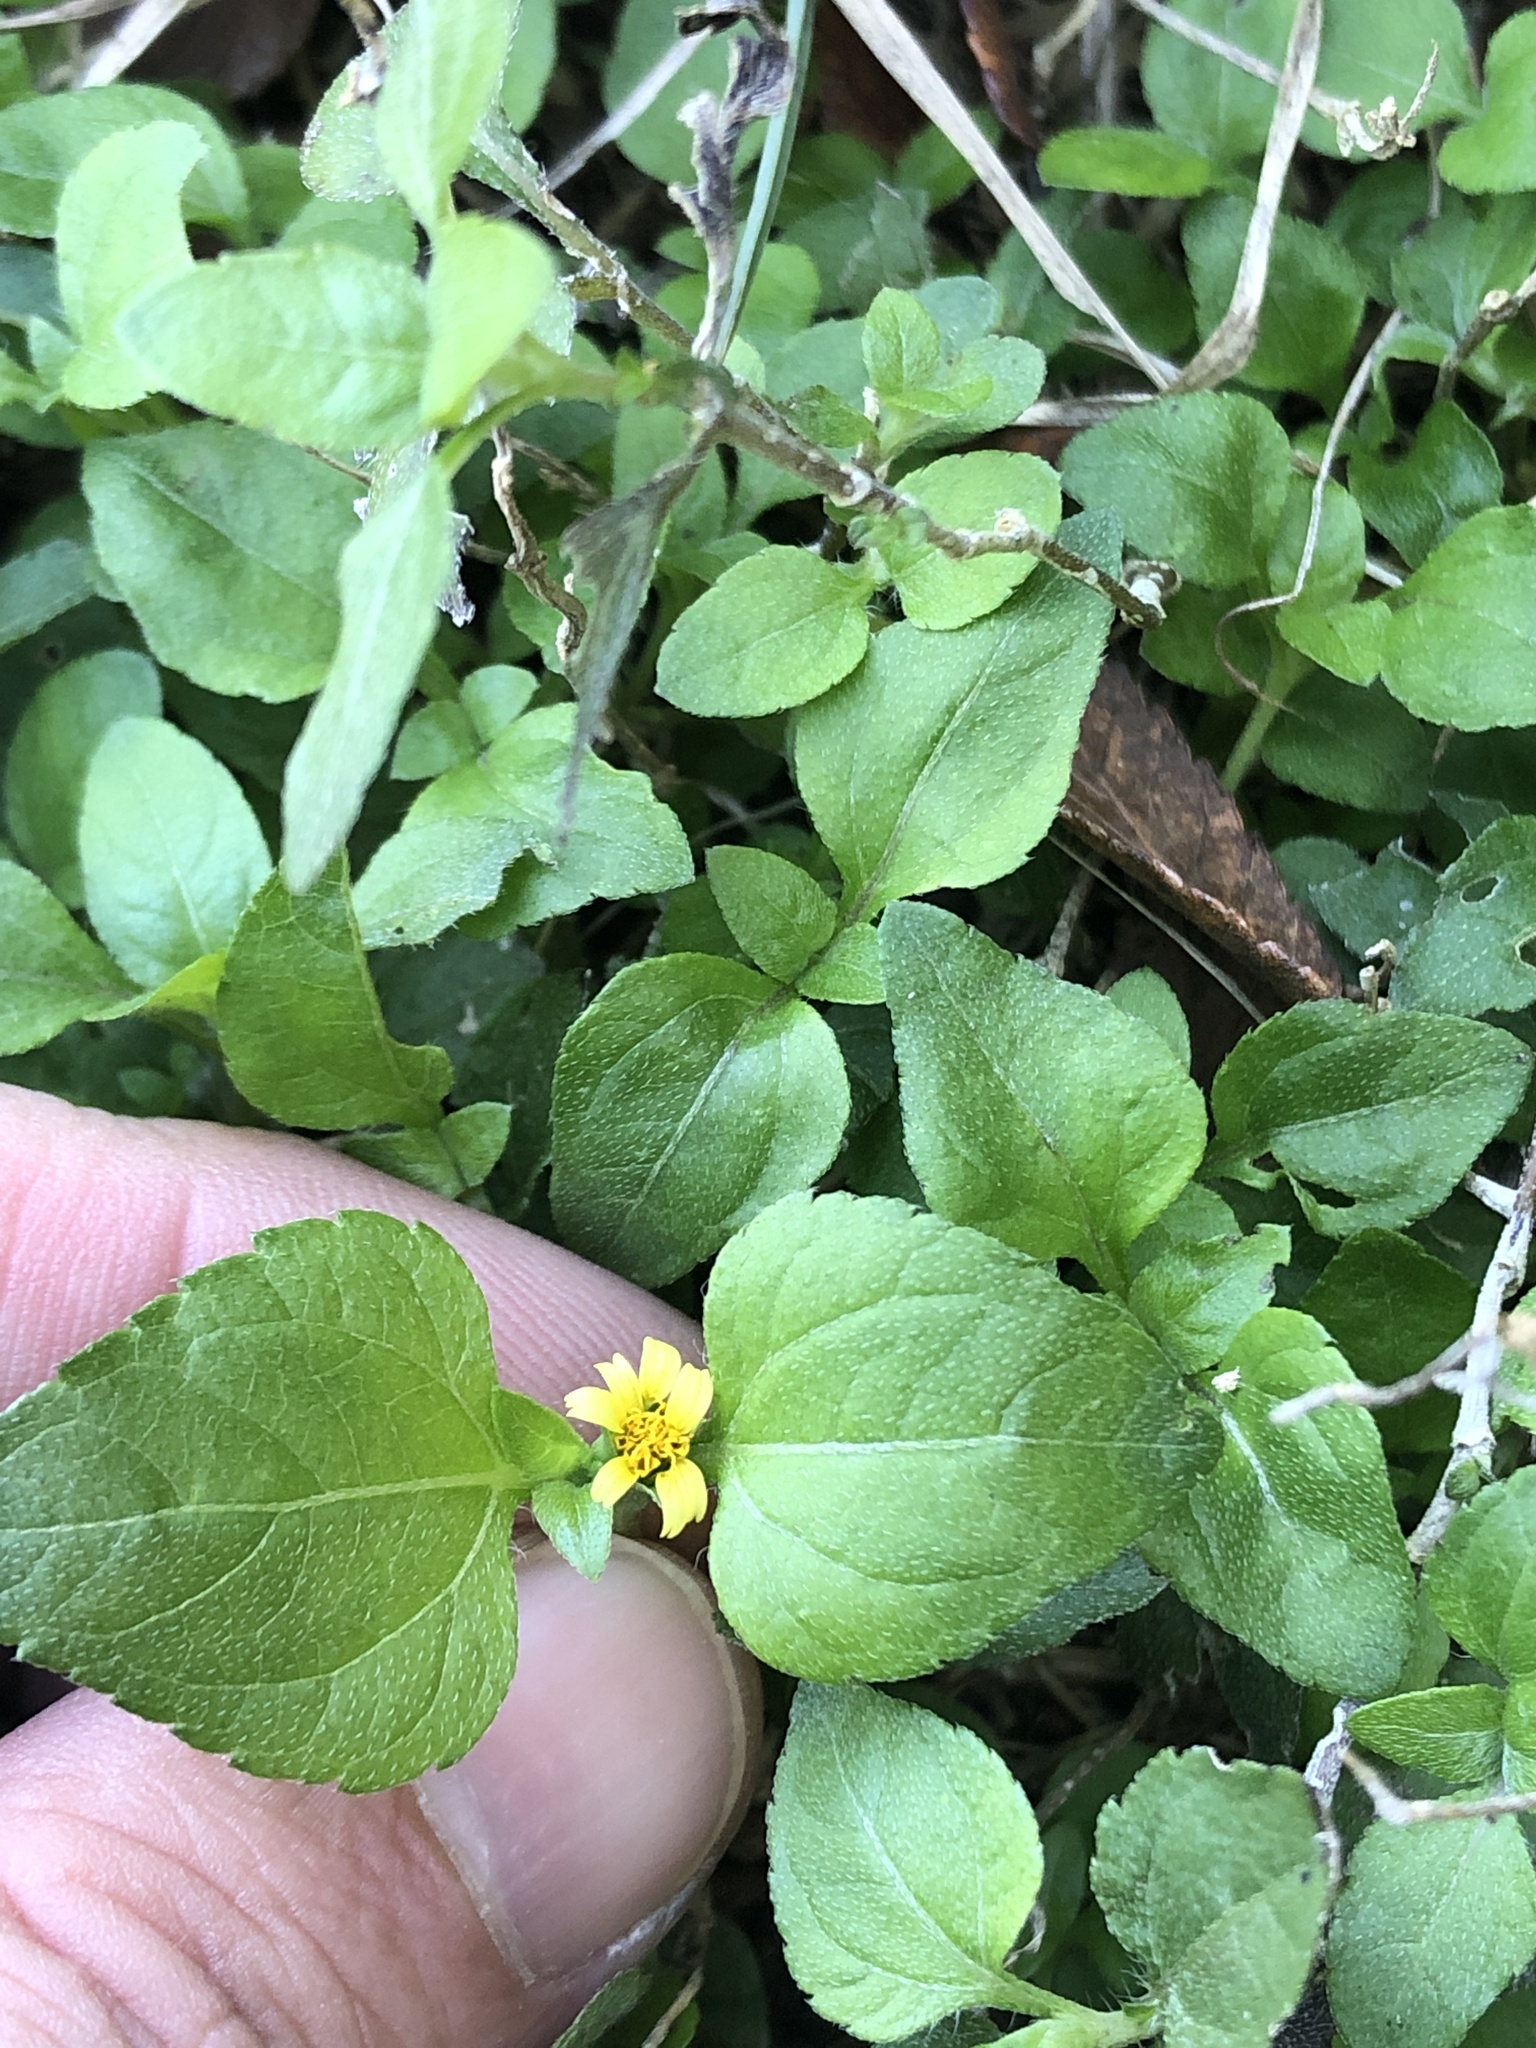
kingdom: Plantae
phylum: Tracheophyta
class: Magnoliopsida
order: Asterales
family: Asteraceae
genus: Calyptocarpus
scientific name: Calyptocarpus vialis
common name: Straggler daisy
